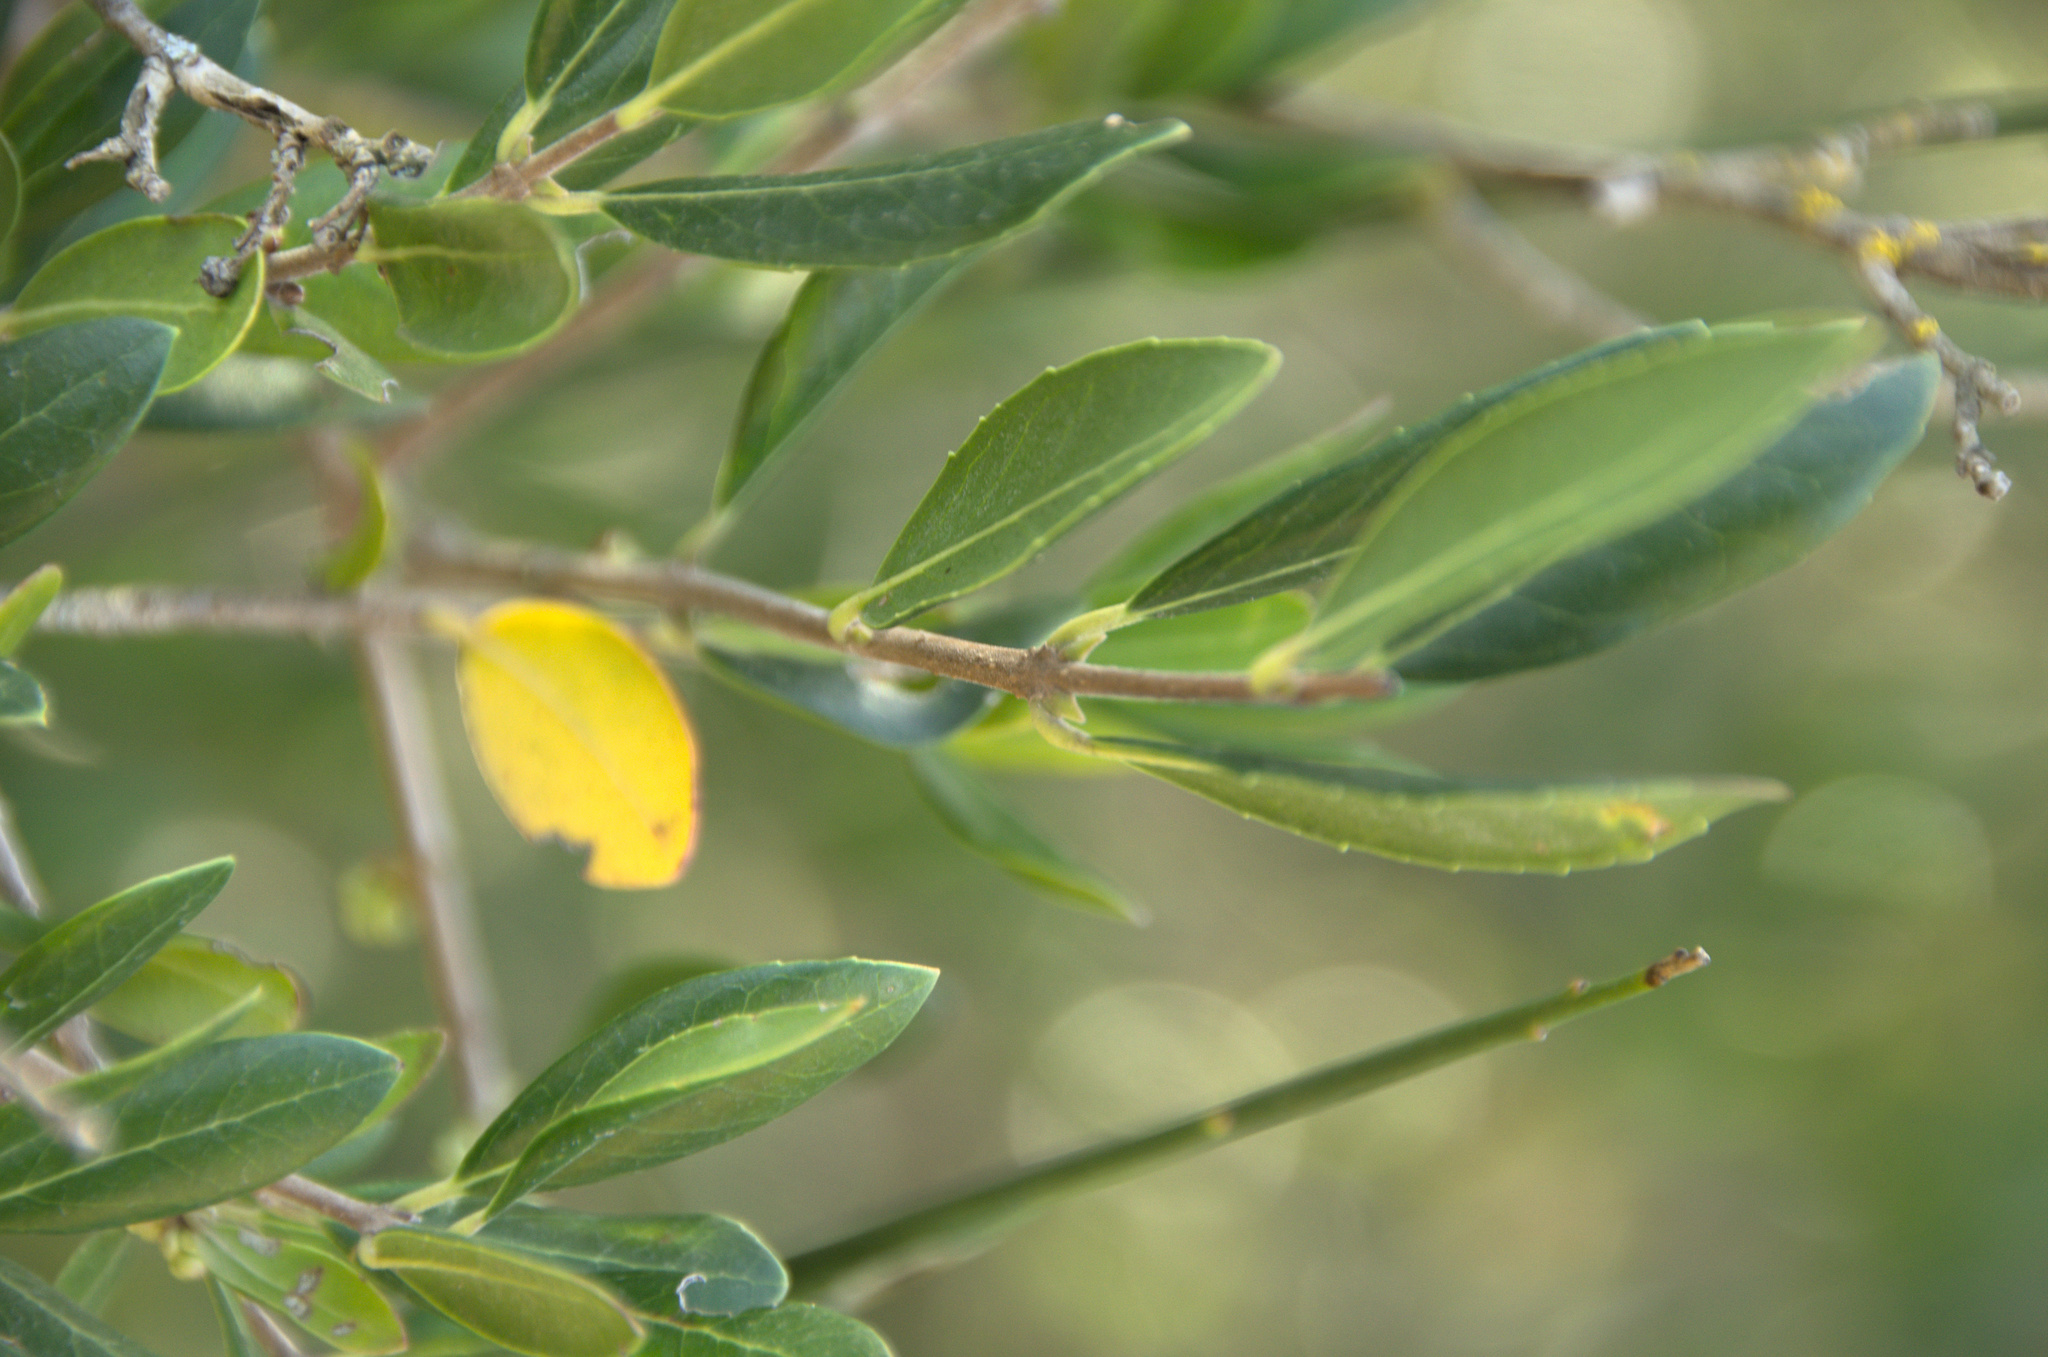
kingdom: Plantae
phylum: Tracheophyta
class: Magnoliopsida
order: Lamiales
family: Oleaceae
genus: Phillyrea
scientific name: Phillyrea angustifolia
